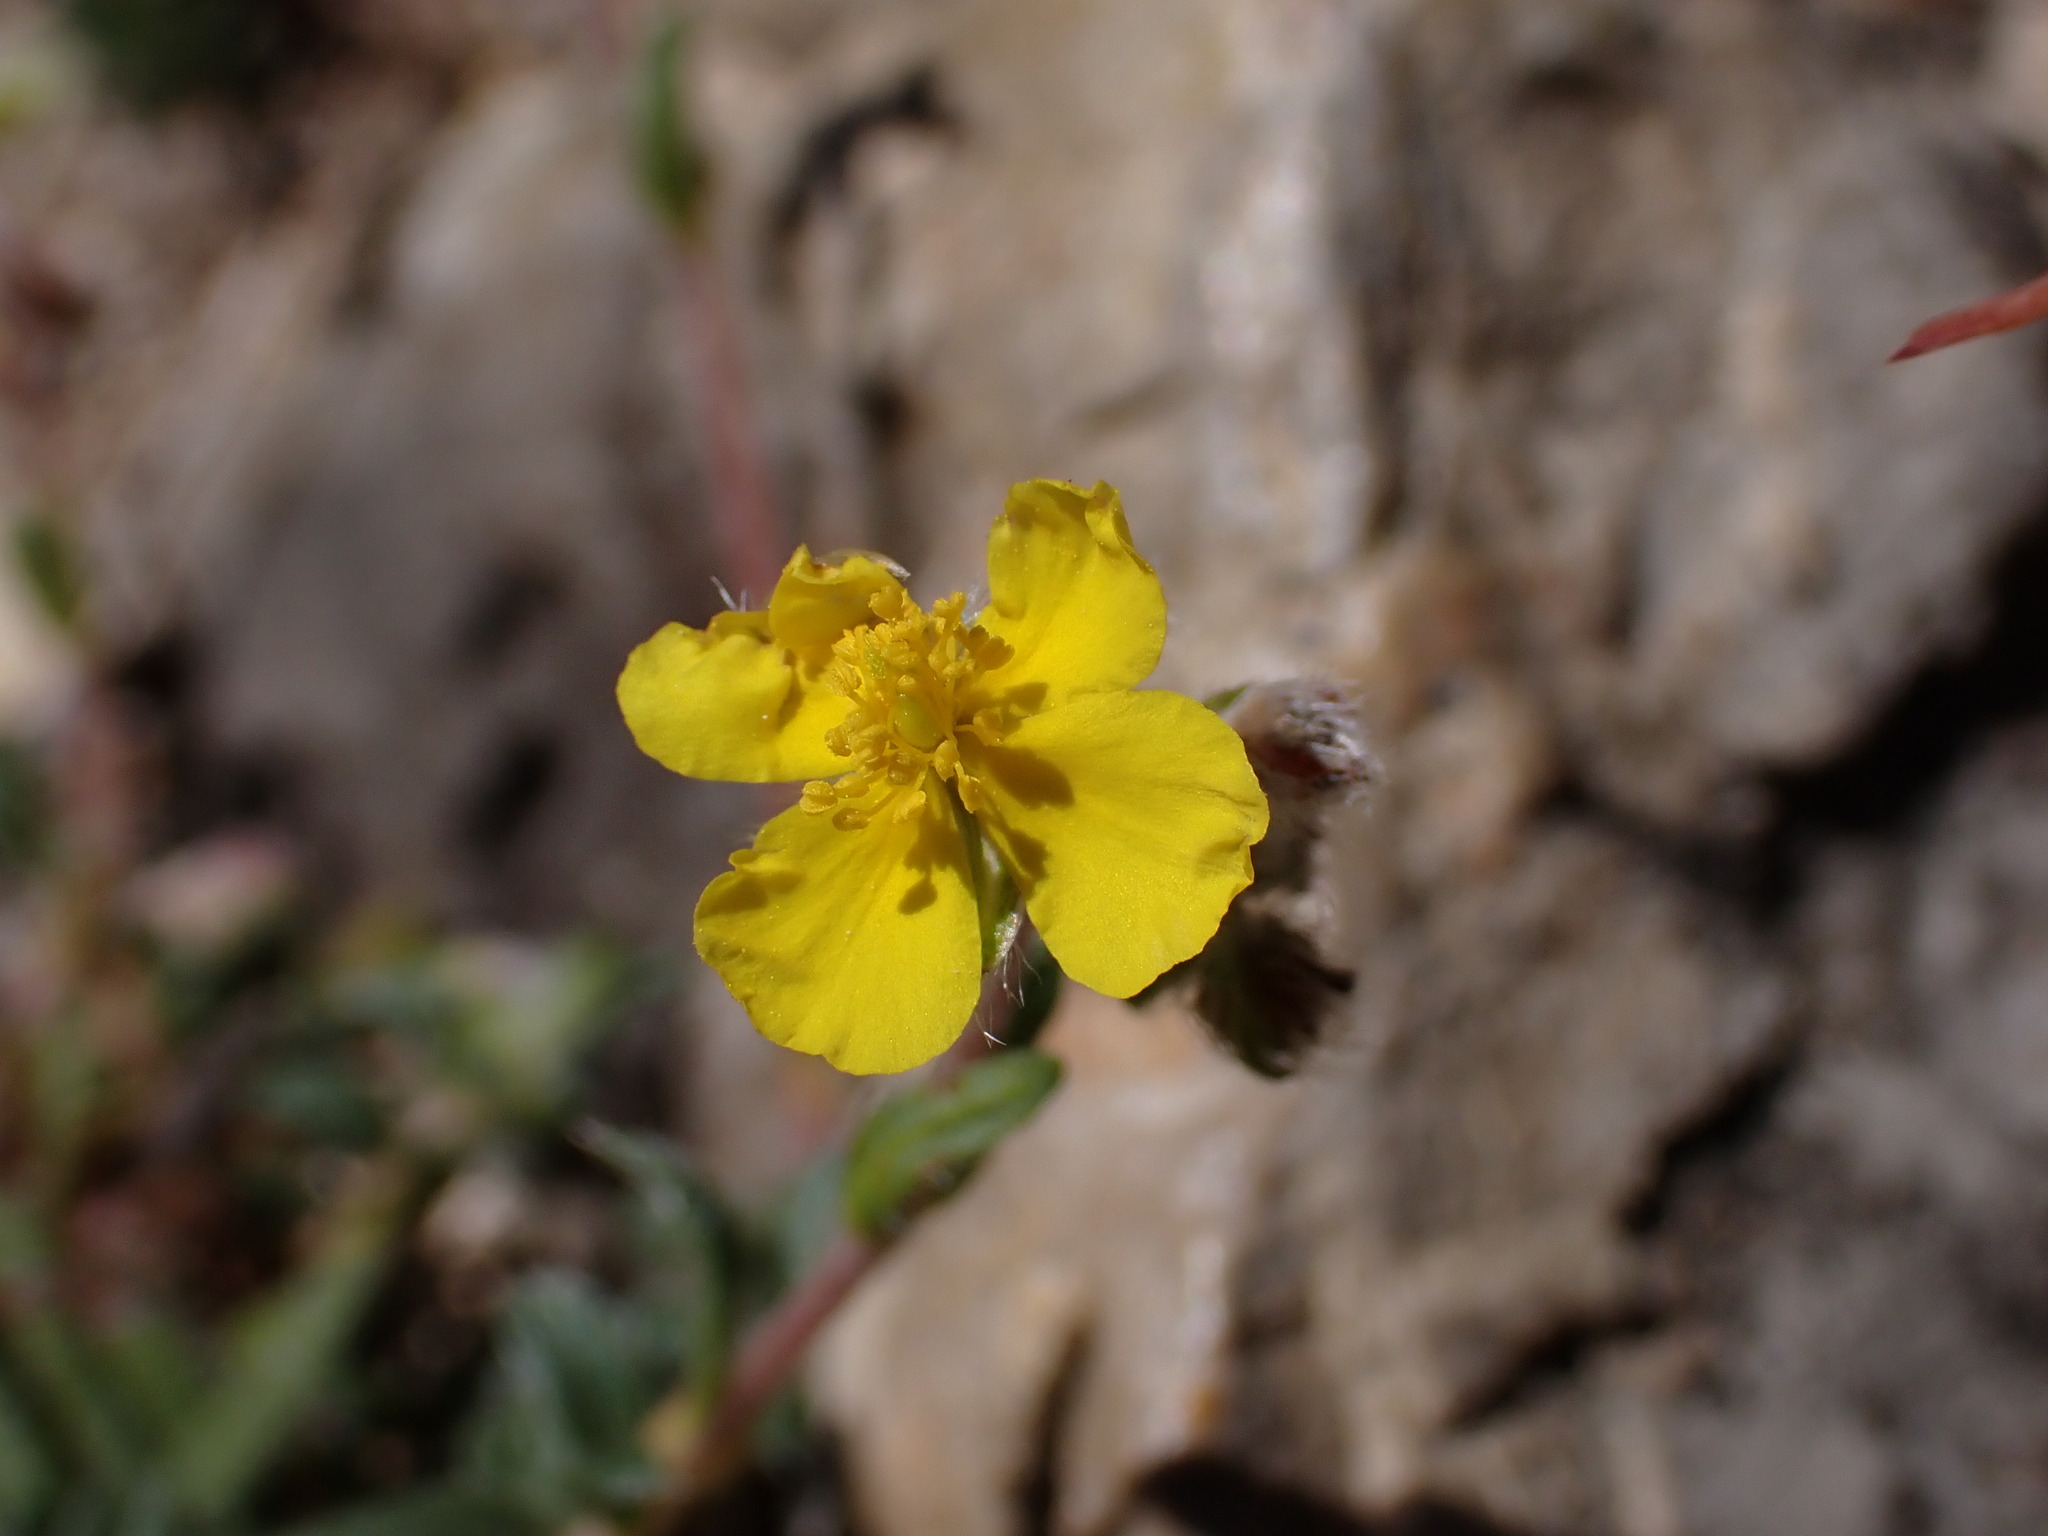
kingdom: Plantae
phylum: Tracheophyta
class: Magnoliopsida
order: Malvales
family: Cistaceae
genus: Helianthemum
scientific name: Helianthemum oelandicum
